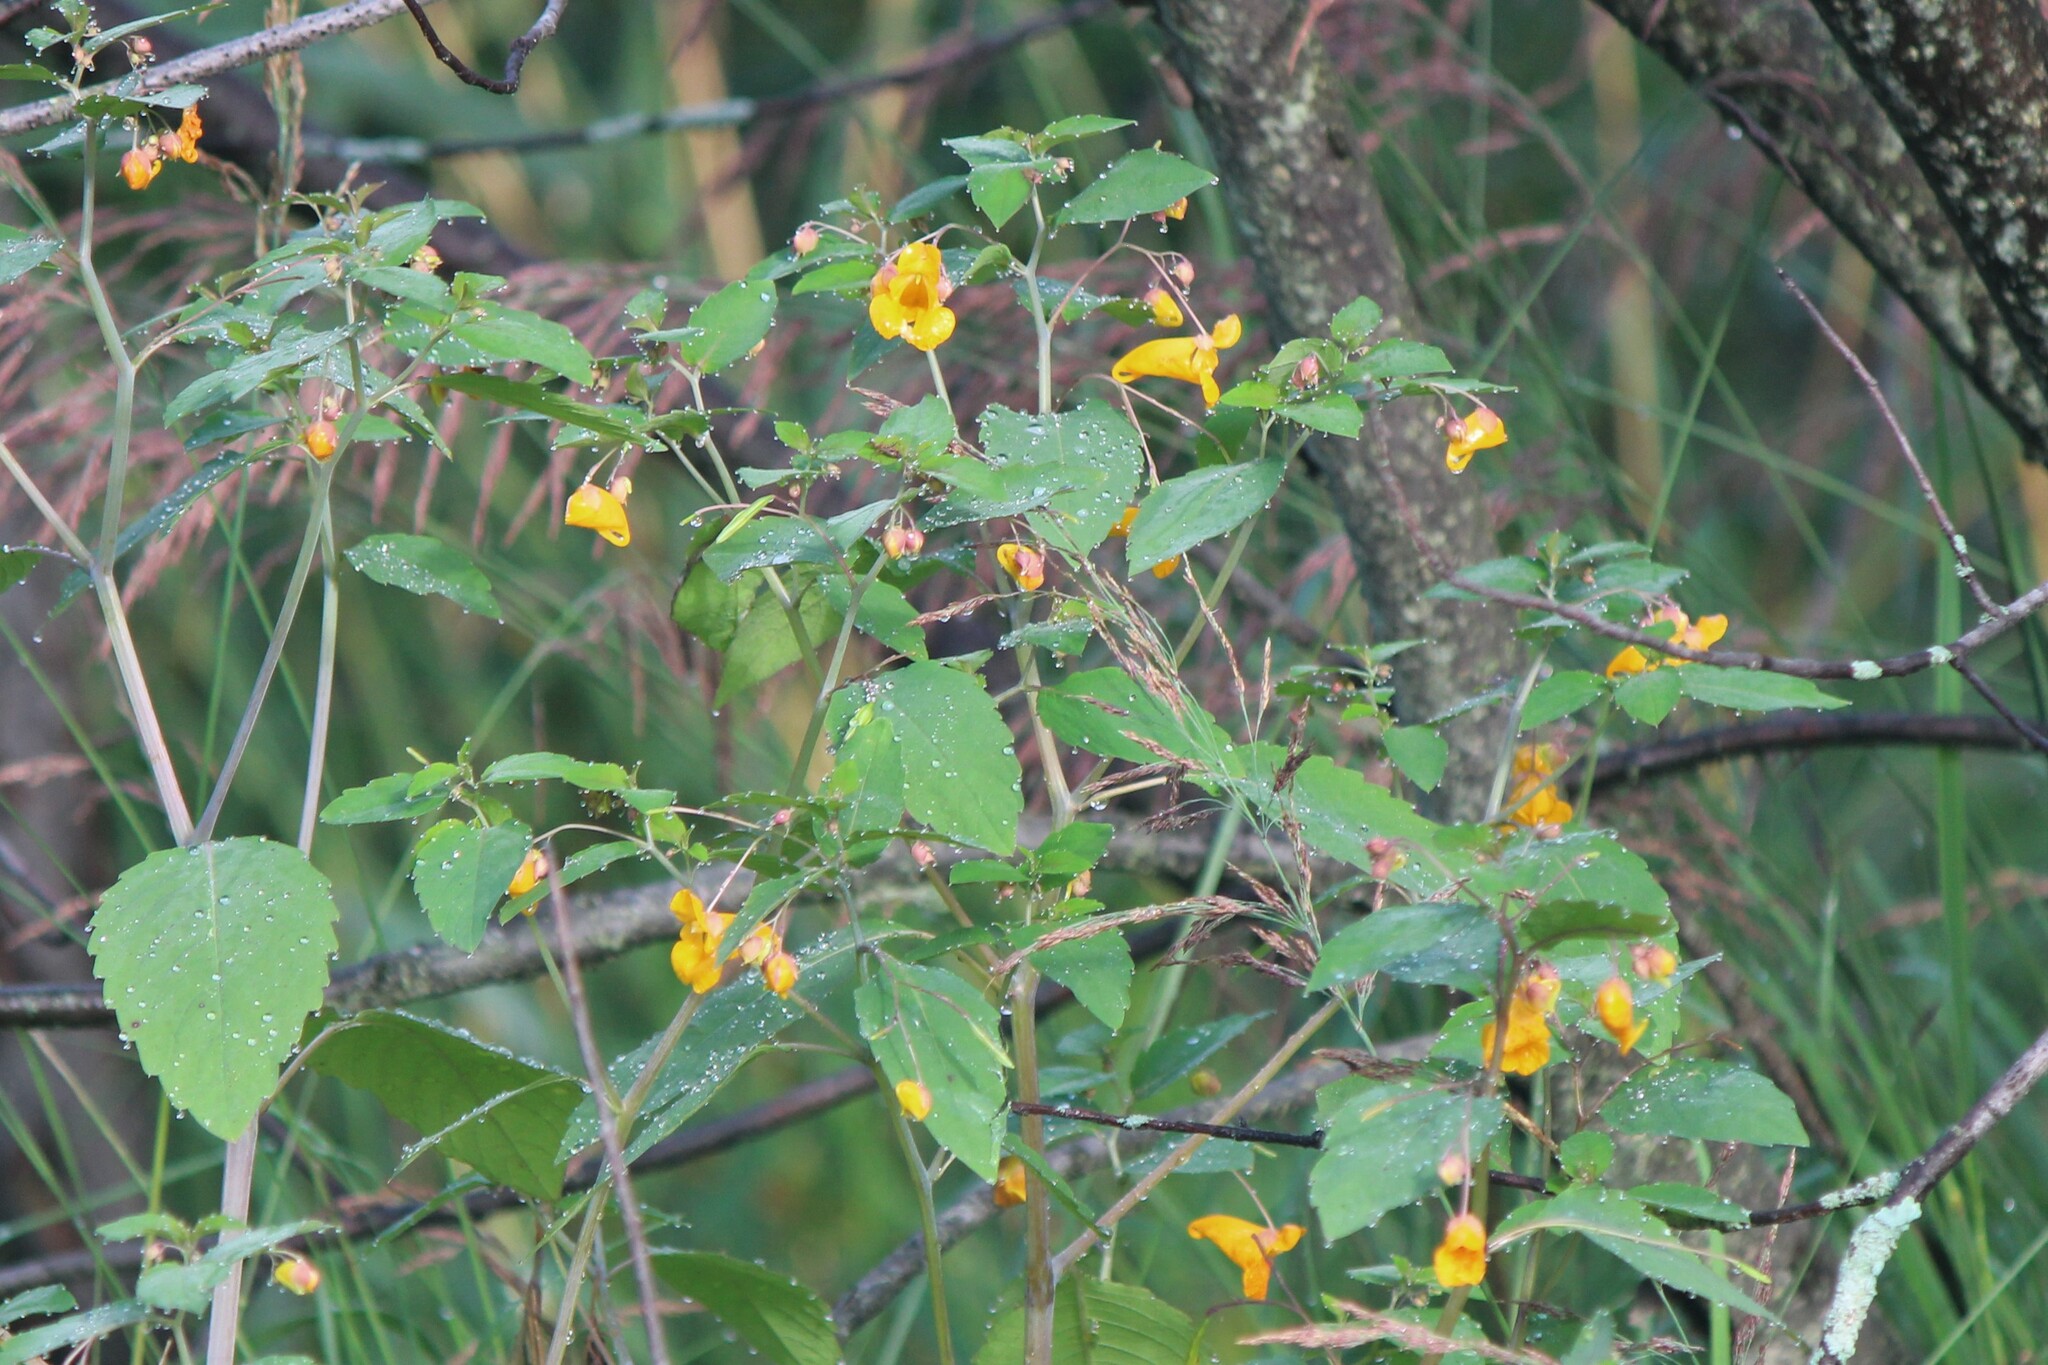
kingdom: Plantae
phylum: Tracheophyta
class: Magnoliopsida
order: Ericales
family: Balsaminaceae
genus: Impatiens
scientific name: Impatiens capensis
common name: Orange balsam
